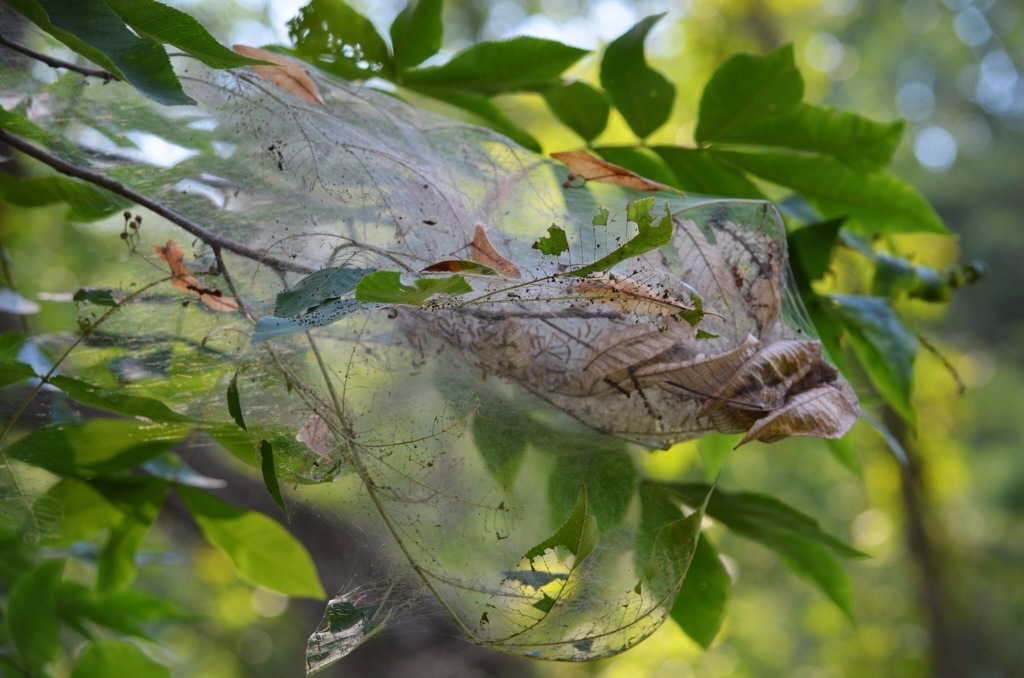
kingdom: Animalia
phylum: Arthropoda
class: Insecta
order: Lepidoptera
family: Erebidae
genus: Hyphantria
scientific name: Hyphantria cunea
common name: American white moth
